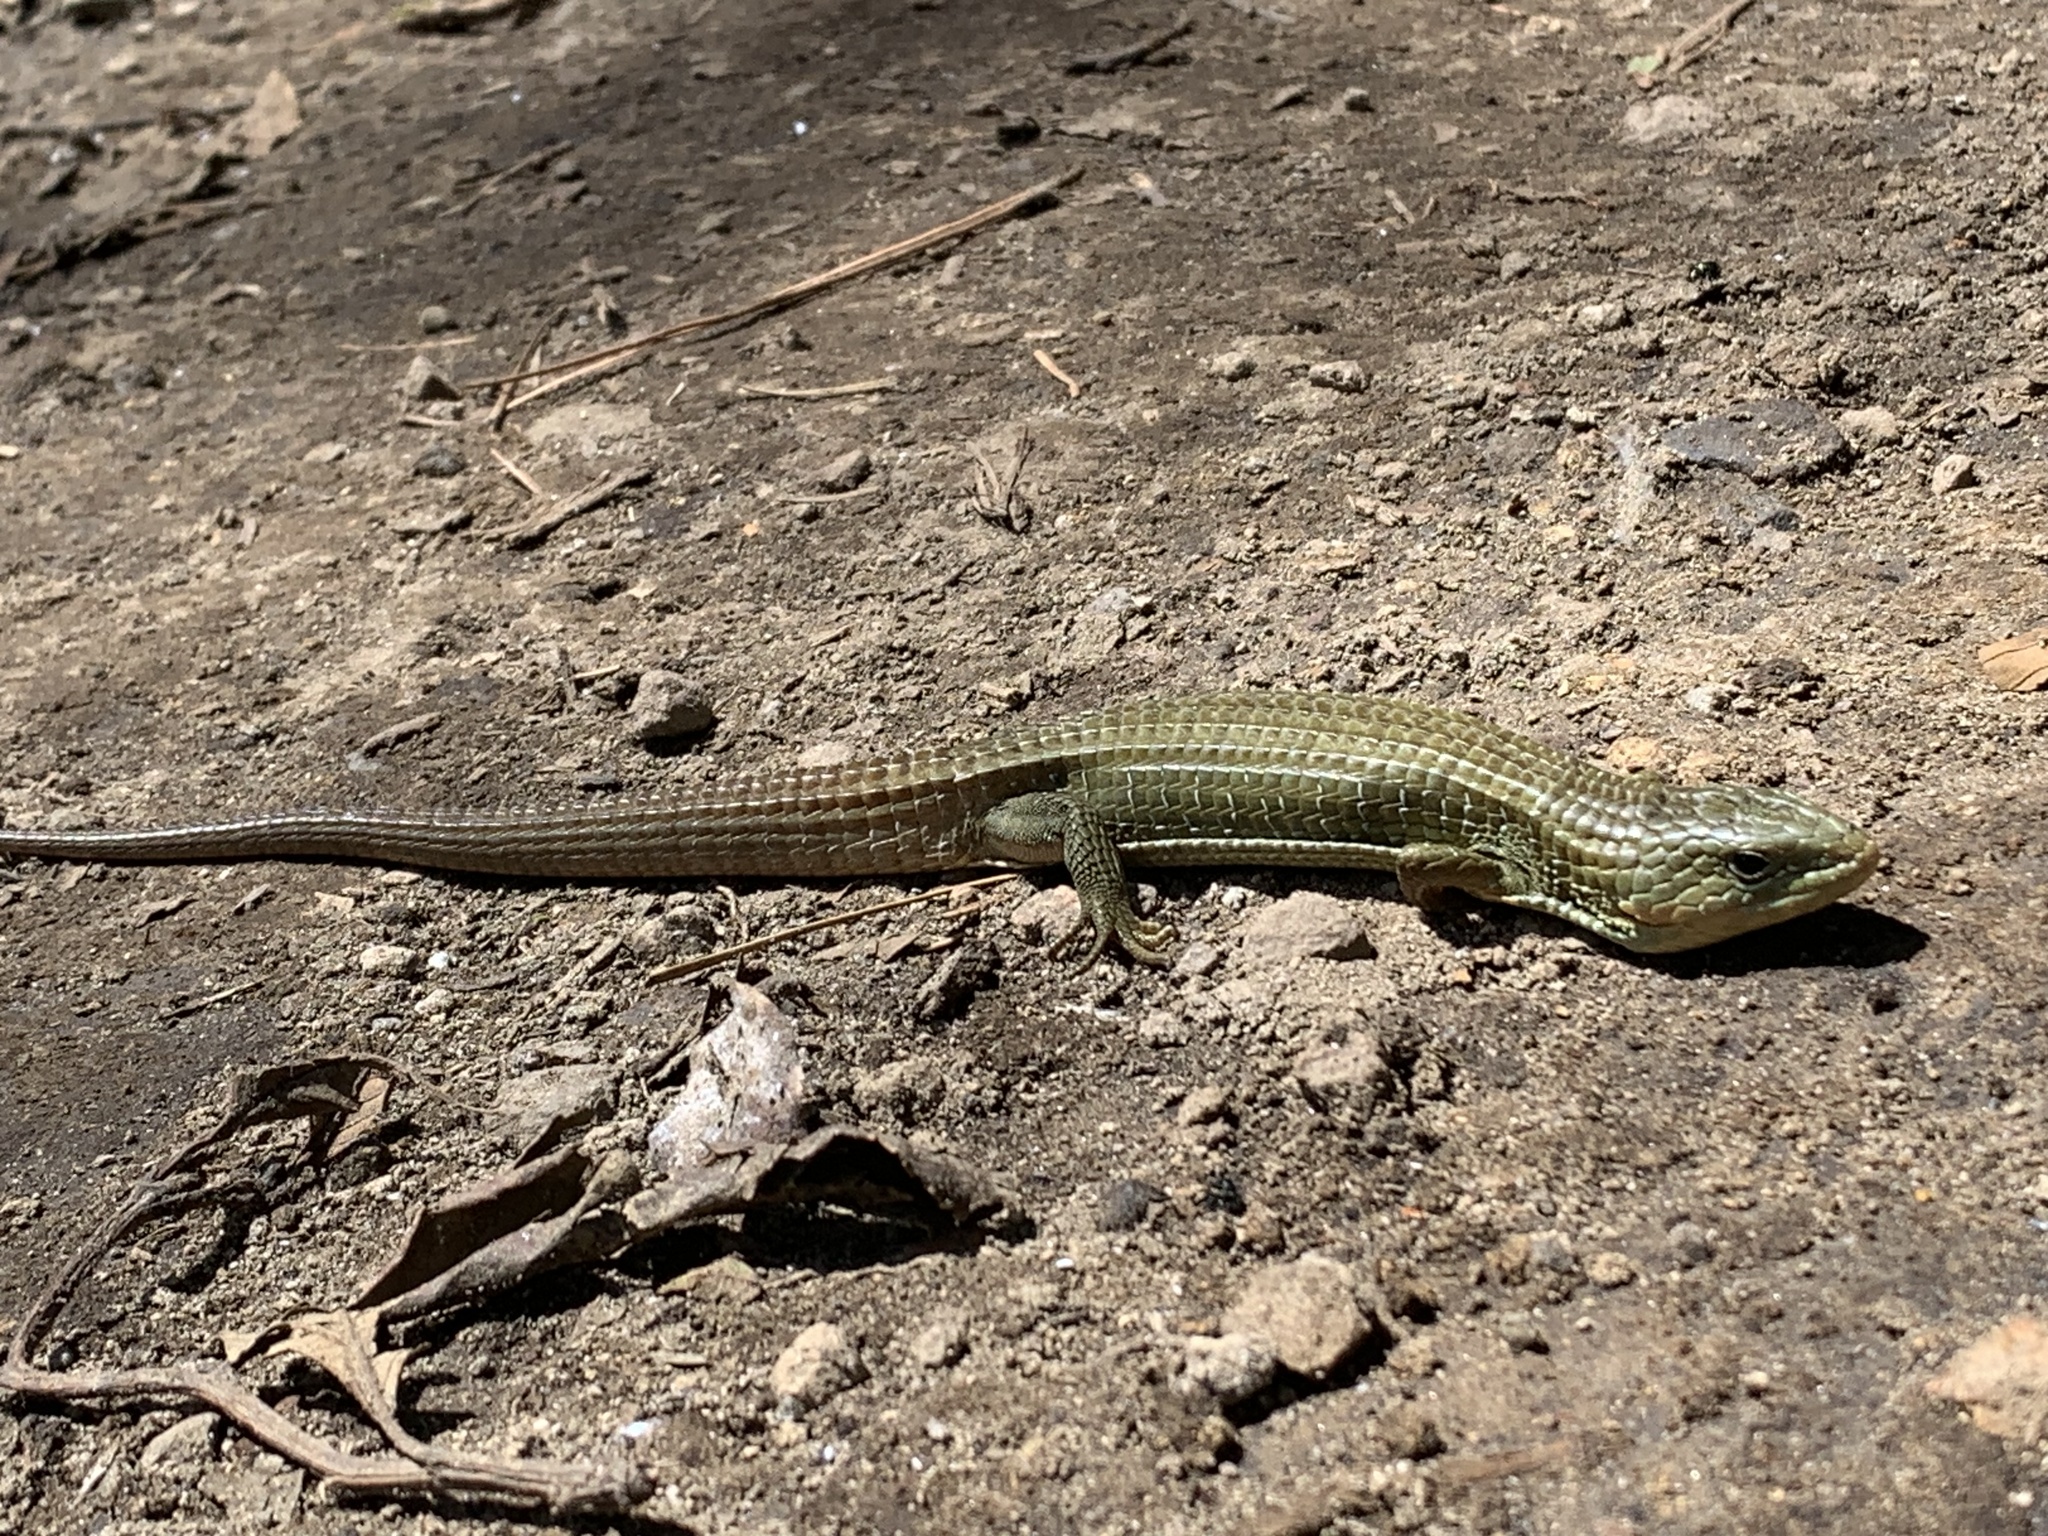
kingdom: Animalia
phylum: Chordata
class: Squamata
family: Anguidae
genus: Barisia
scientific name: Barisia imbricata
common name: Imbricate alligator lizard
